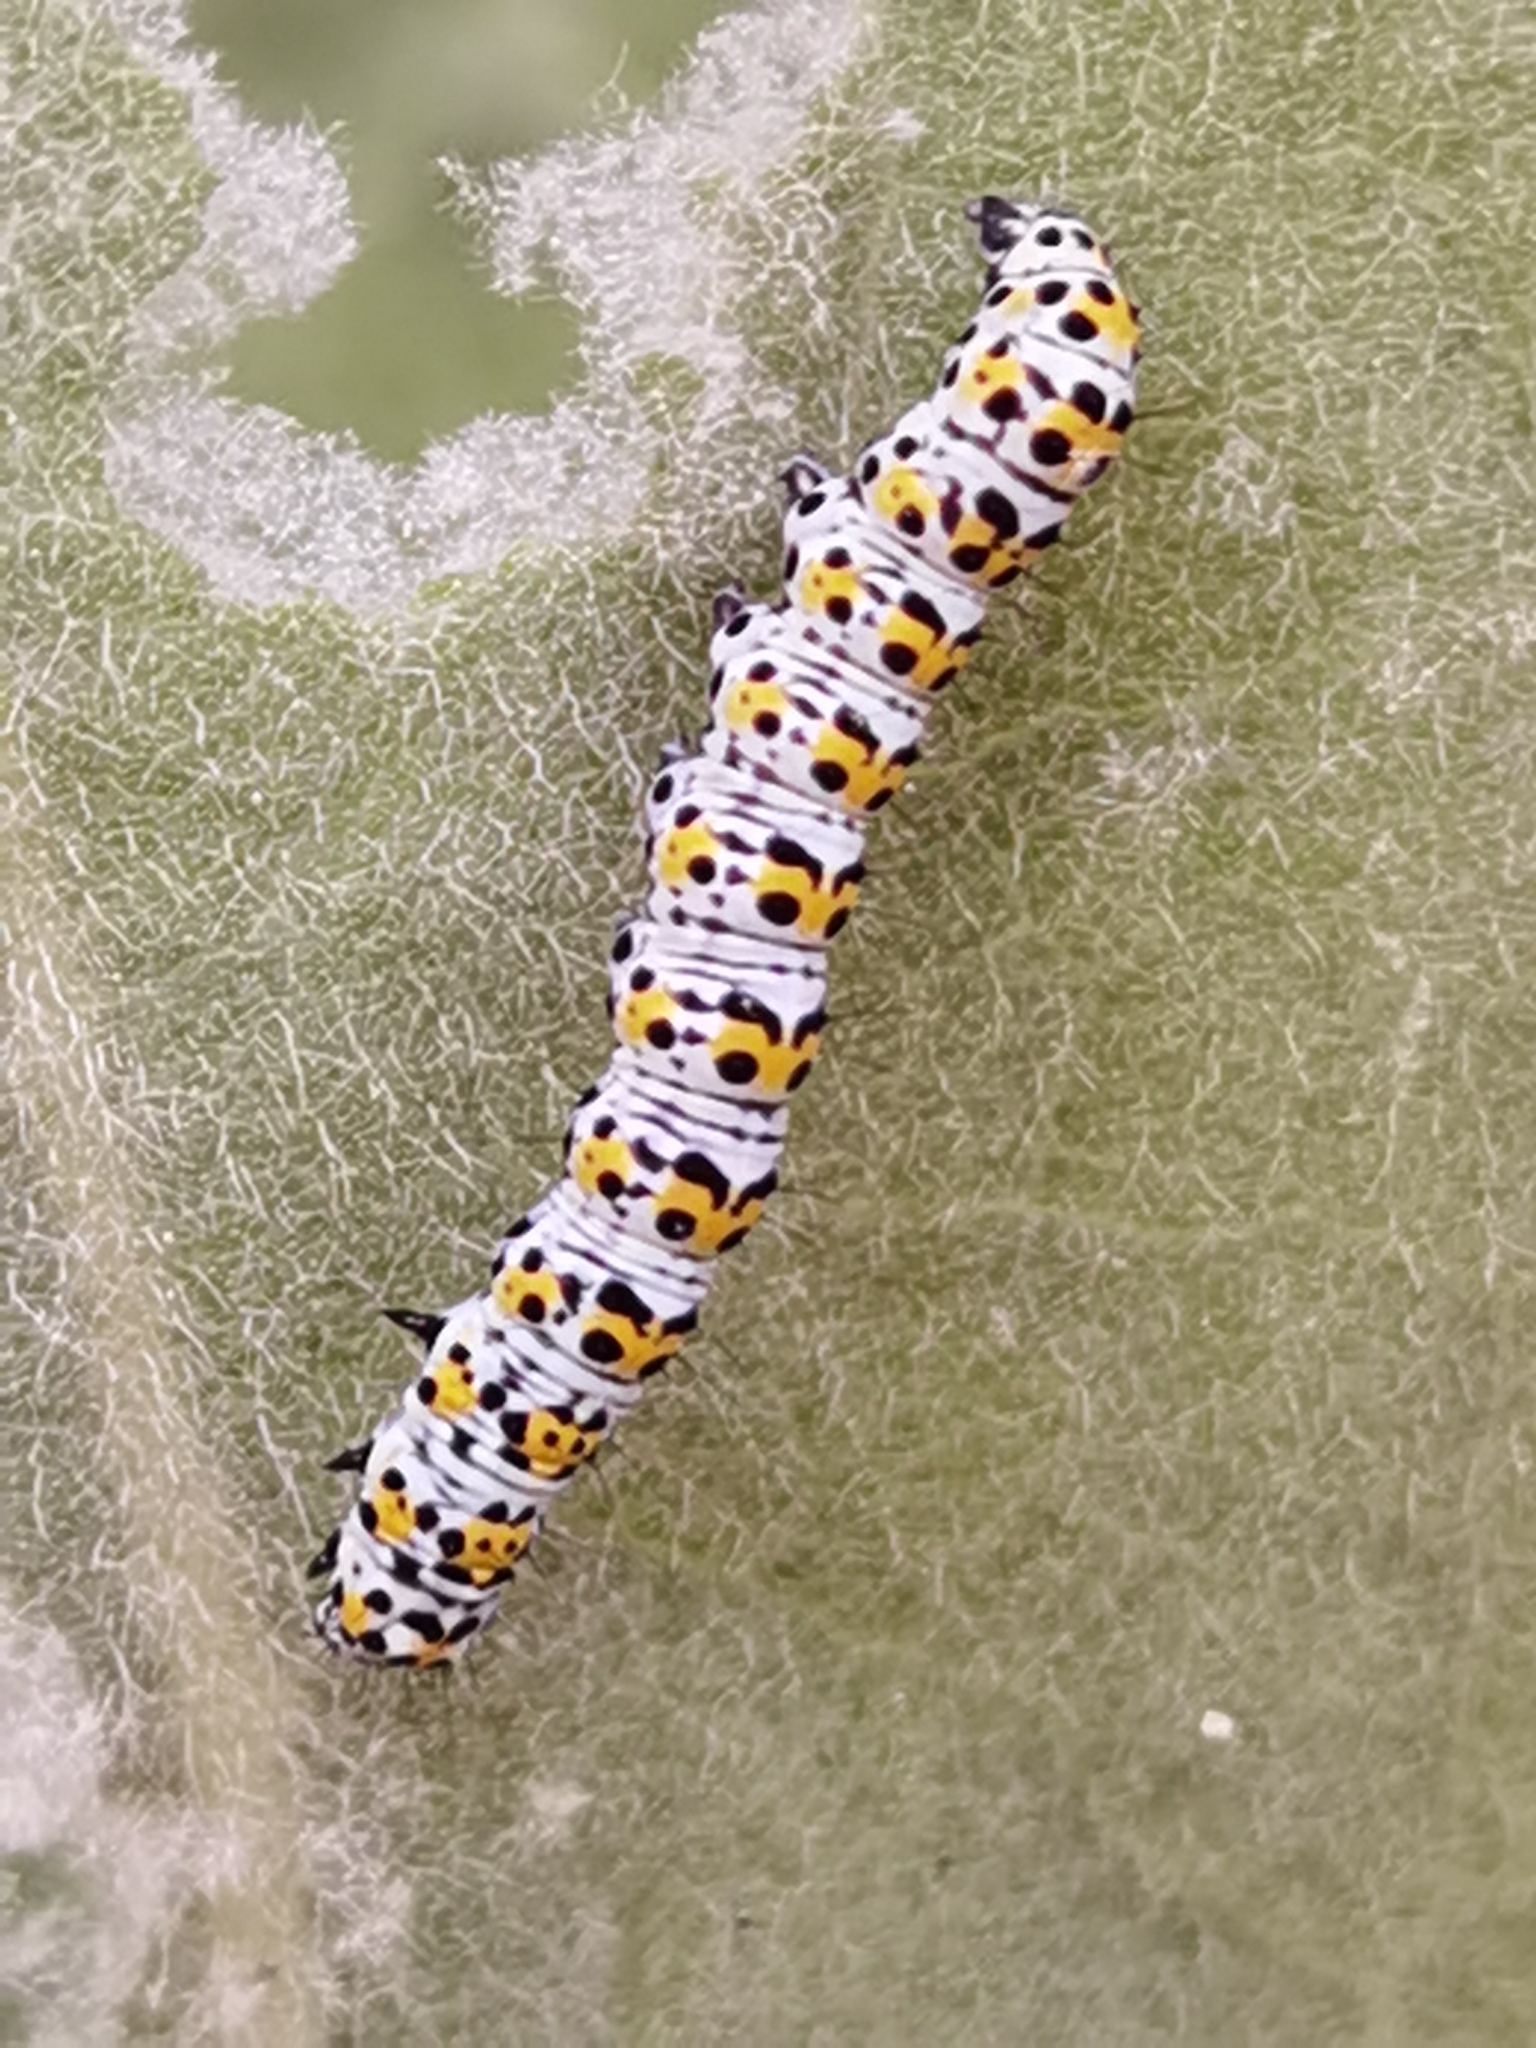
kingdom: Animalia
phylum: Arthropoda
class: Insecta
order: Lepidoptera
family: Noctuidae
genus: Cucullia
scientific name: Cucullia verbasci
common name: Mullein
